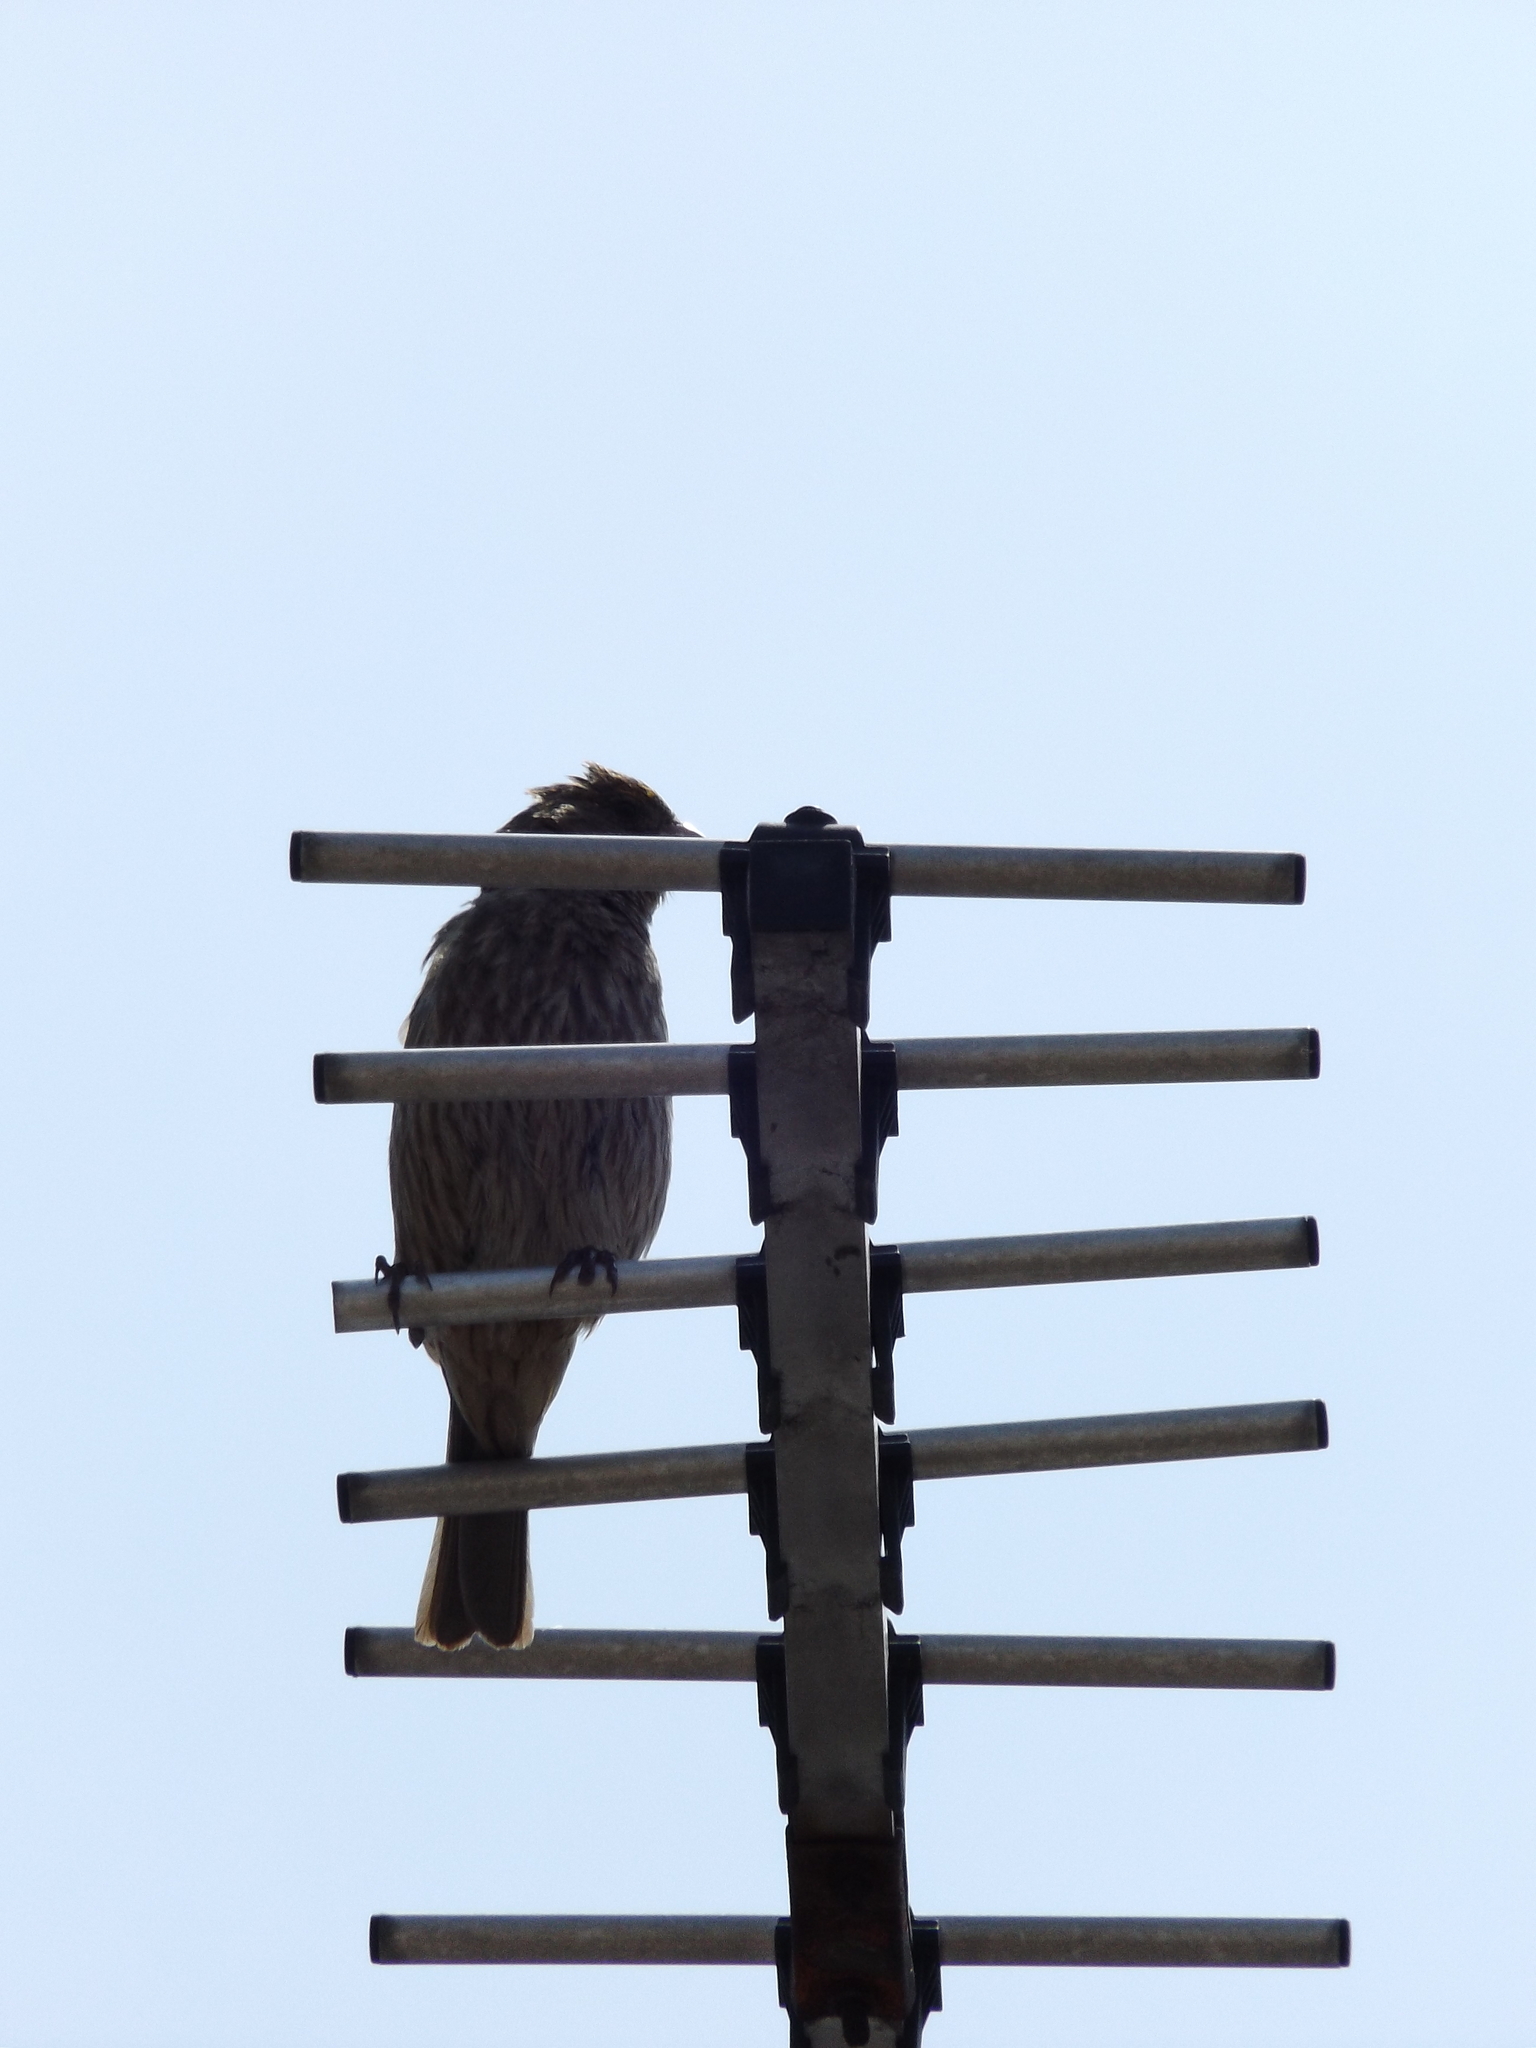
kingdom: Animalia
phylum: Chordata
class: Aves
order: Passeriformes
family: Fringillidae
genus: Haemorhous
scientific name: Haemorhous mexicanus
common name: House finch
